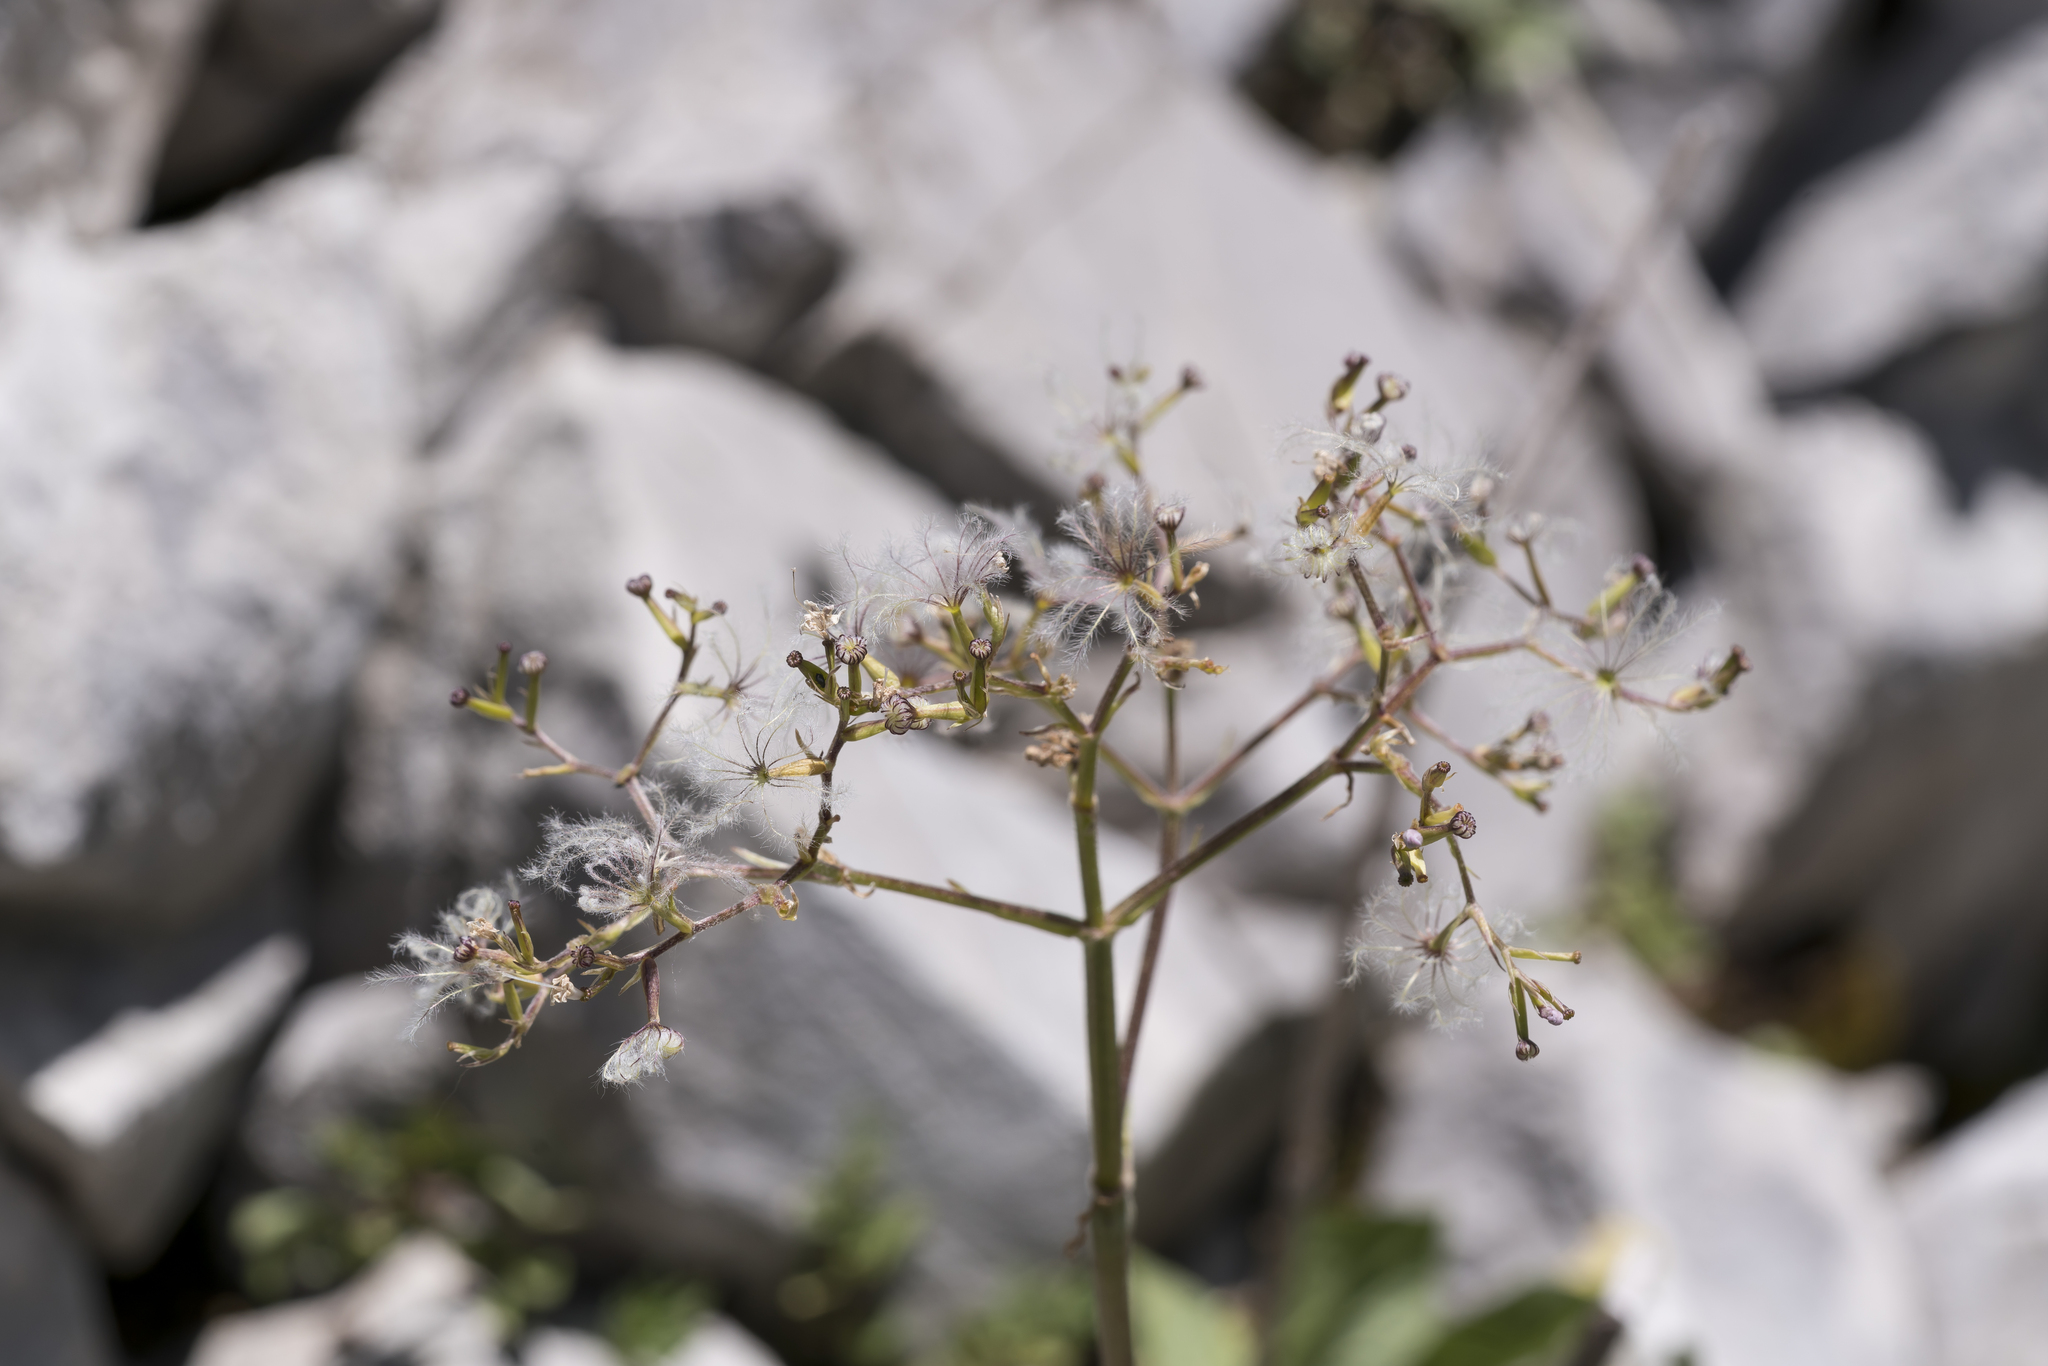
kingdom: Plantae
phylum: Tracheophyta
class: Magnoliopsida
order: Dipsacales
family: Caprifoliaceae
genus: Valeriana
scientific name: Valeriana montana
